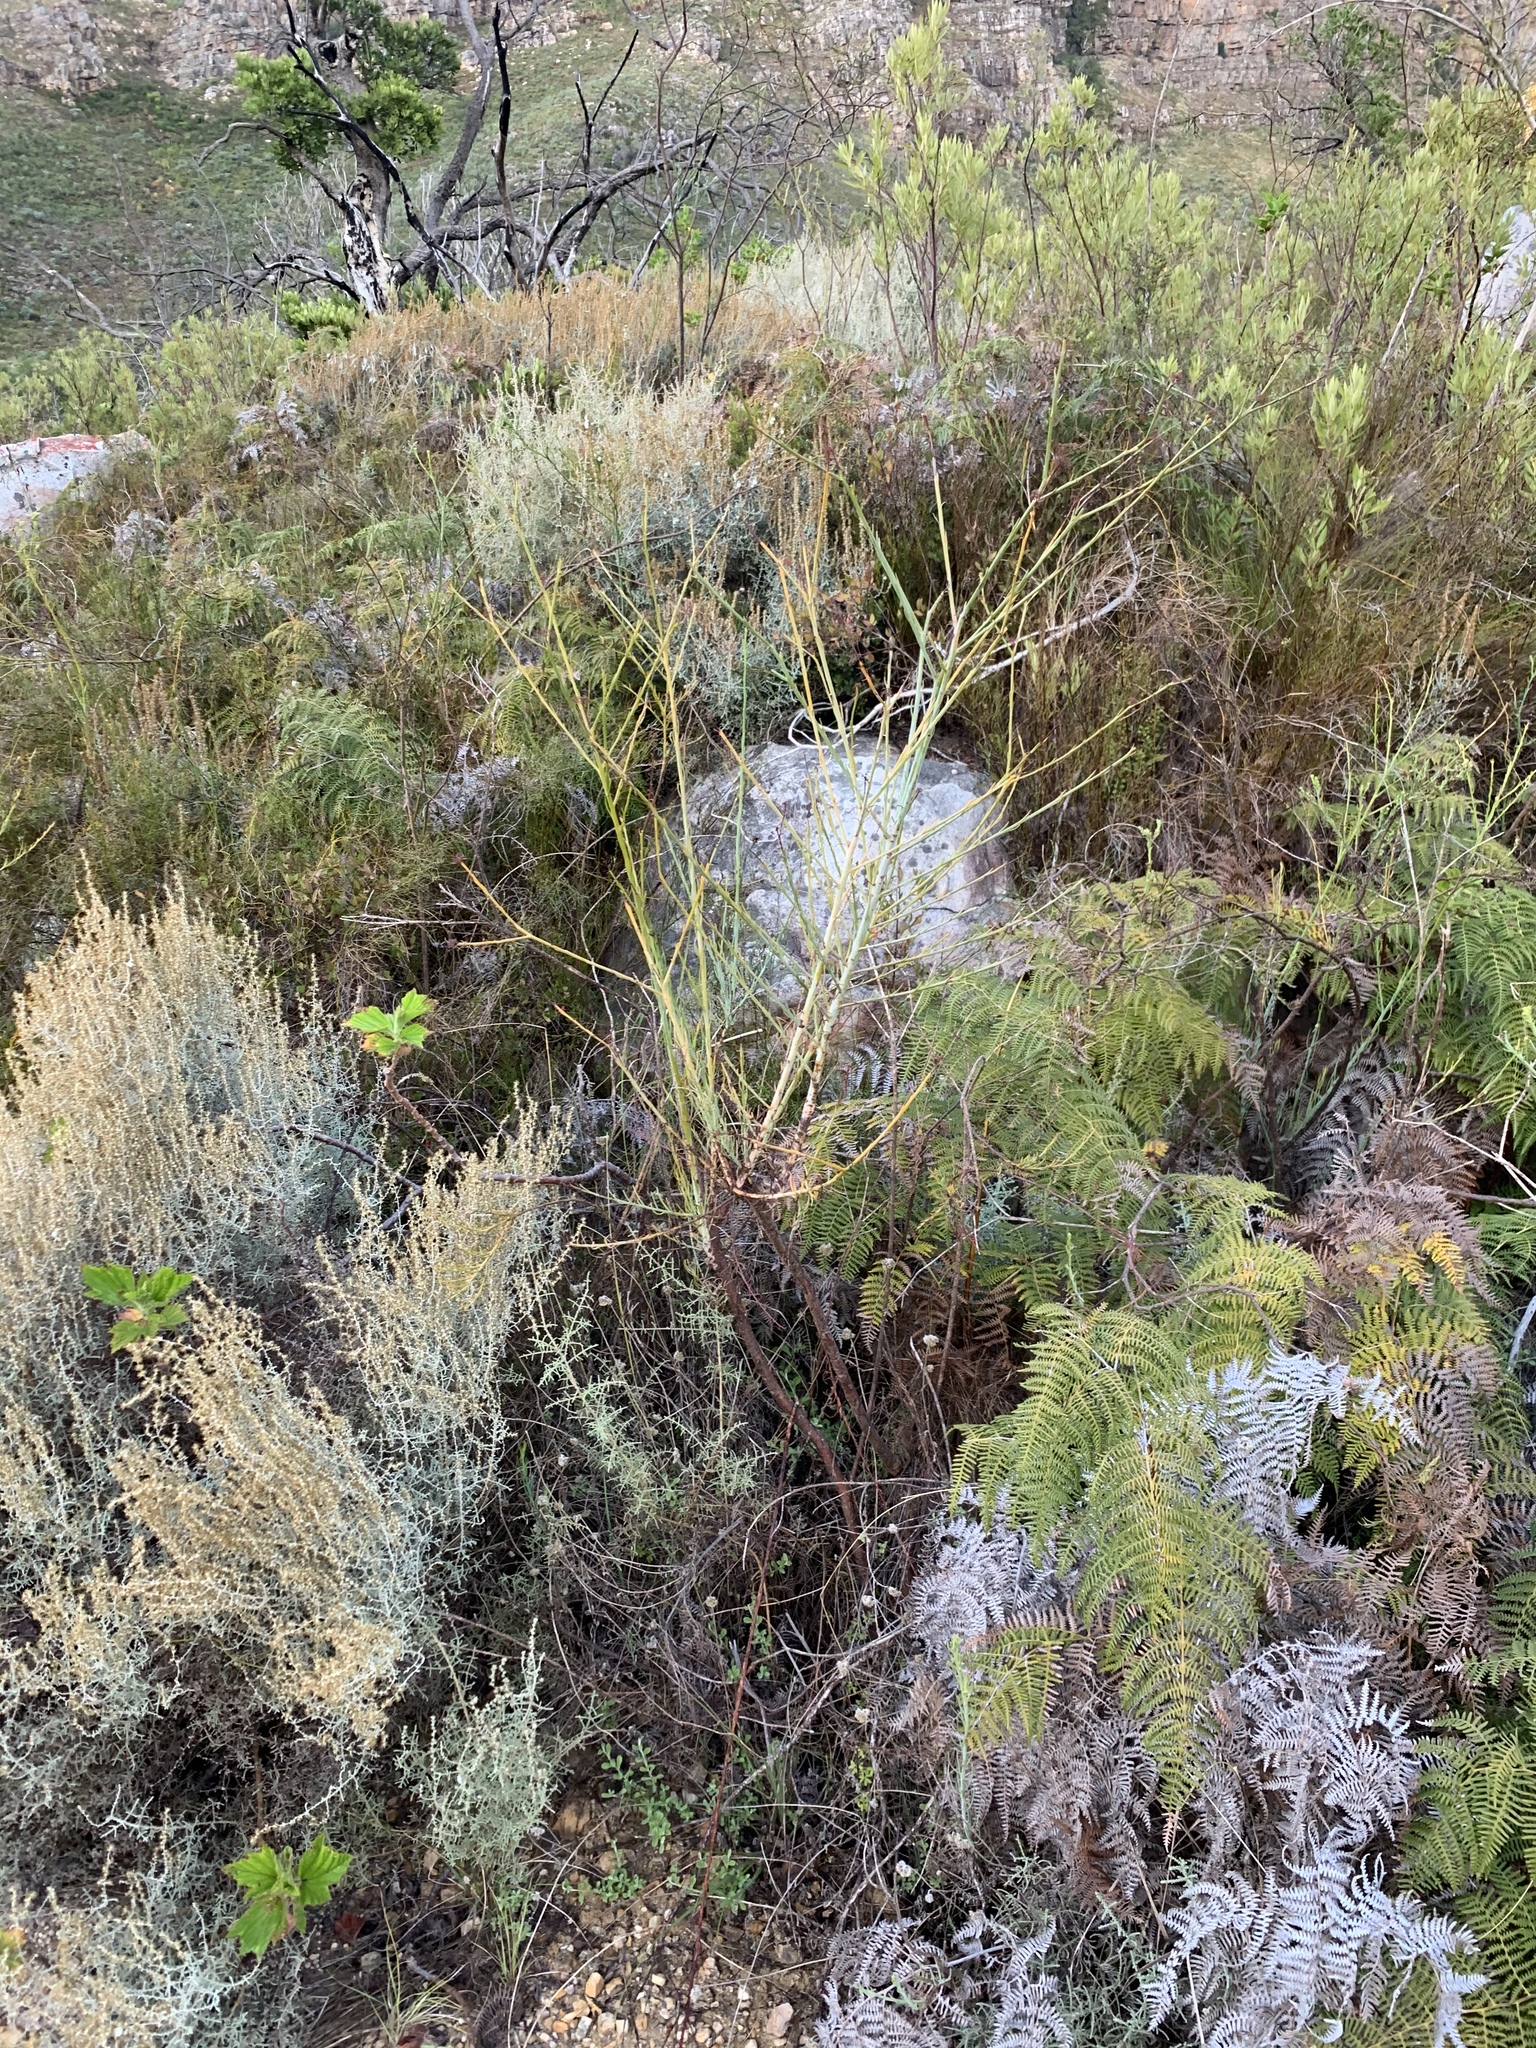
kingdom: Plantae
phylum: Tracheophyta
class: Magnoliopsida
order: Santalales
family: Thesiaceae
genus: Thesium
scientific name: Thesium strictum
